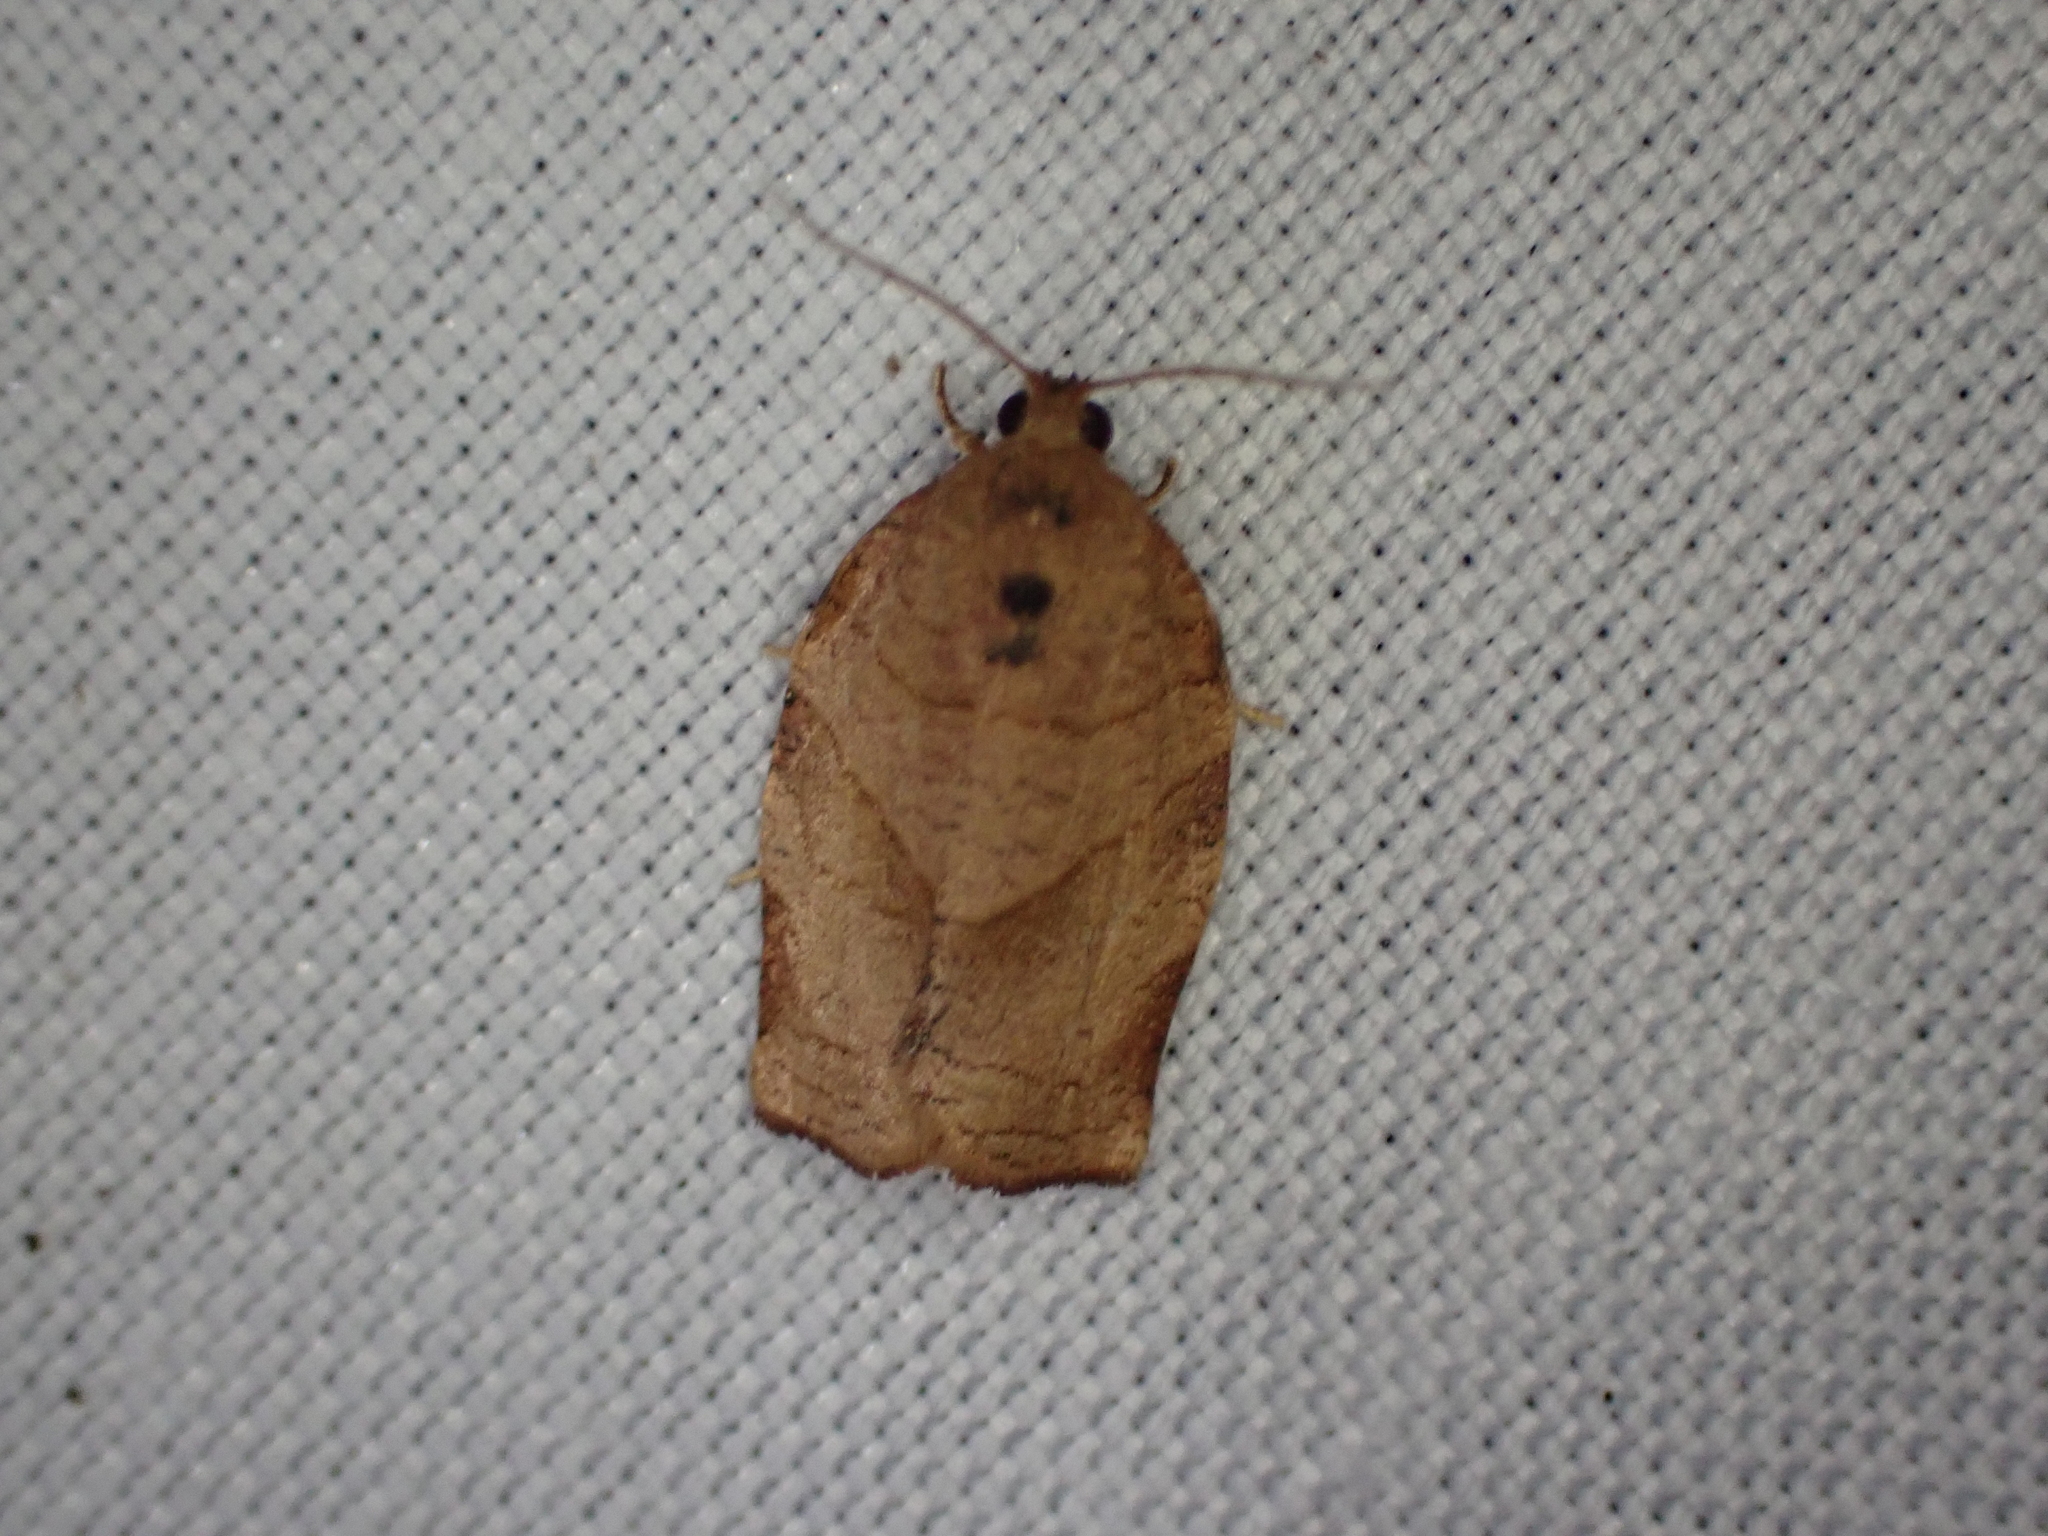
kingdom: Animalia
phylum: Arthropoda
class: Insecta
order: Lepidoptera
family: Tortricidae
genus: Choristoneura
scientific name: Choristoneura rosaceana
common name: Oblique-banded leafroller moth
